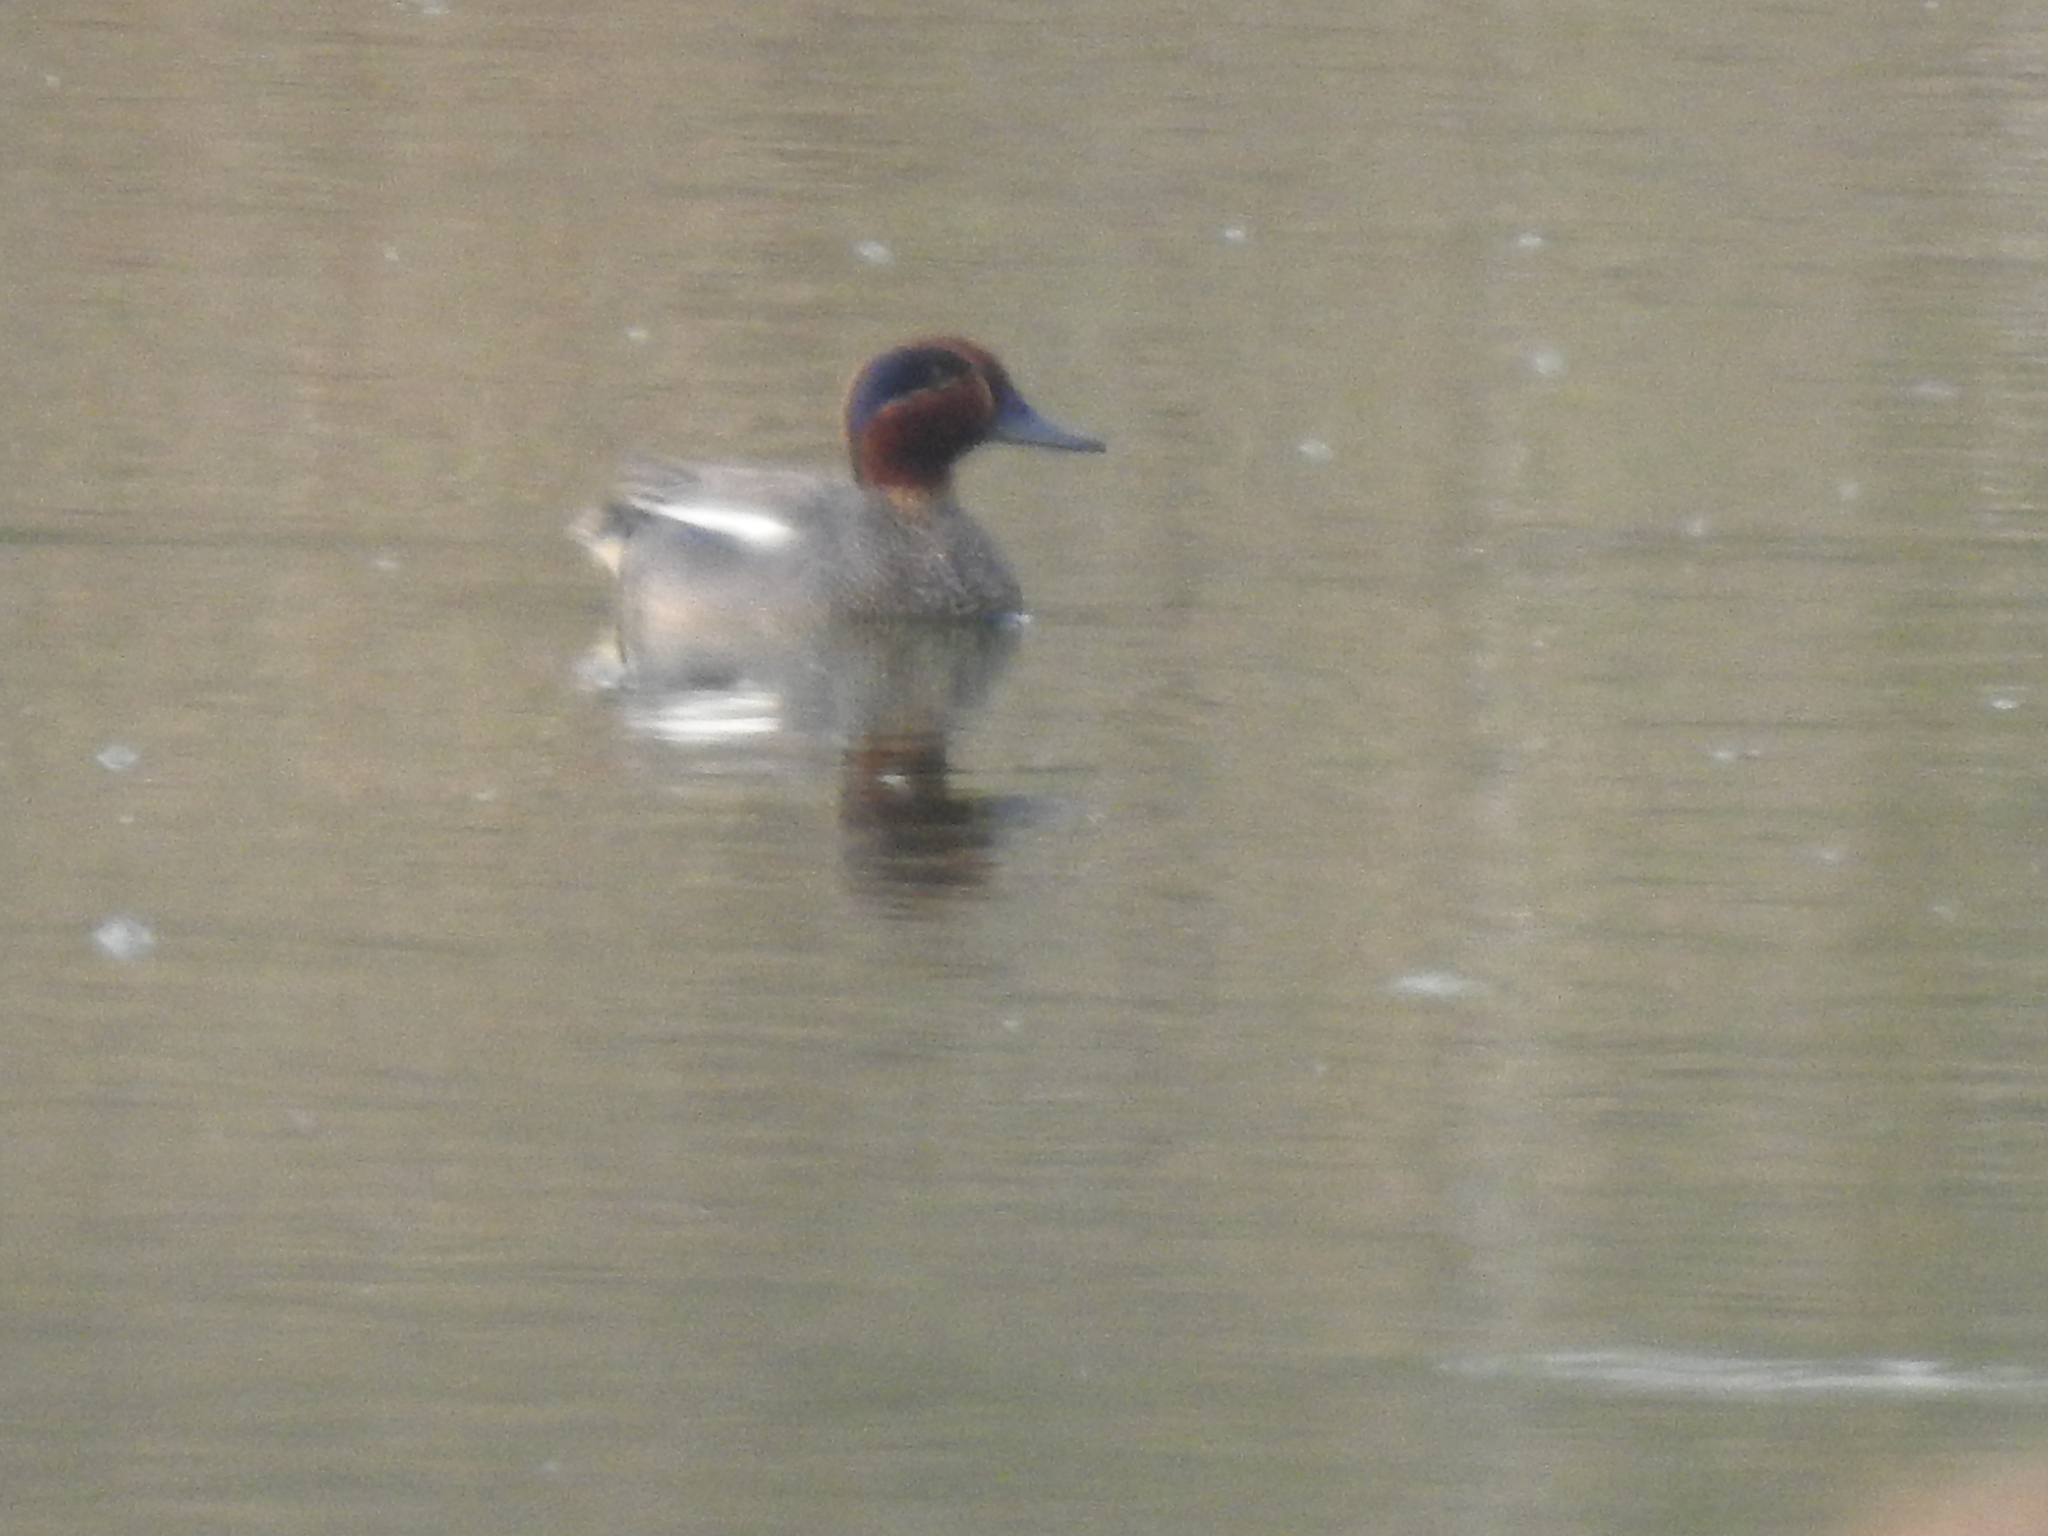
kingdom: Animalia
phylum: Chordata
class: Aves
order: Anseriformes
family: Anatidae
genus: Anas
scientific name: Anas crecca
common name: Eurasian teal
